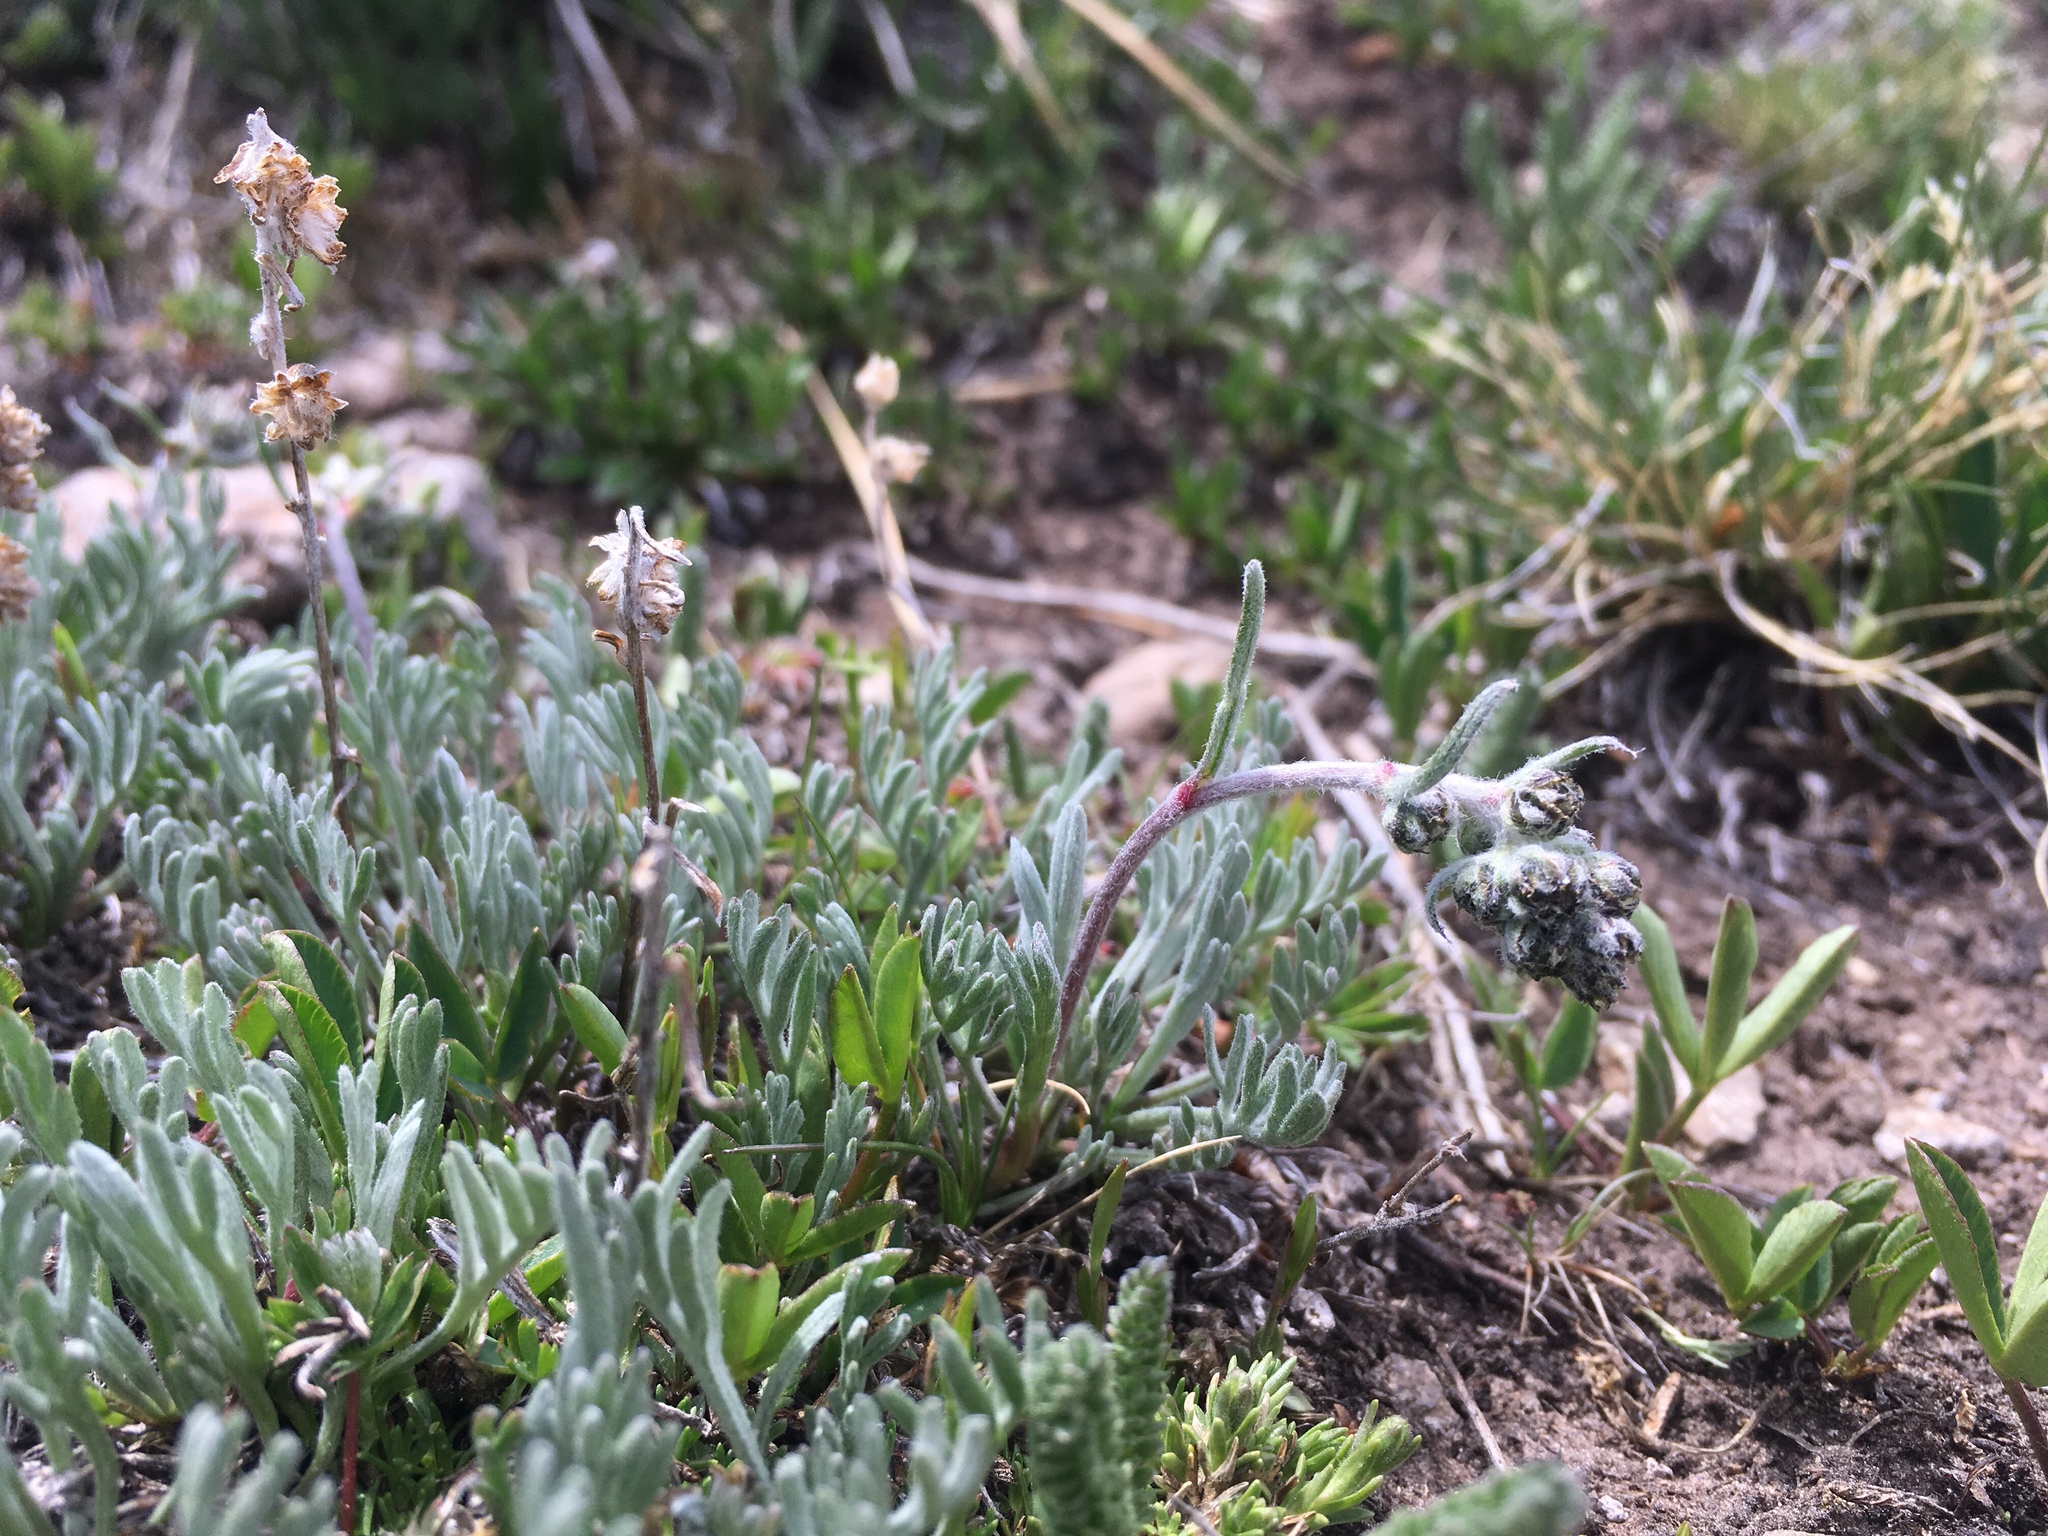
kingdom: Plantae
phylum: Tracheophyta
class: Magnoliopsida
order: Asterales
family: Asteraceae
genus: Artemisia
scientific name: Artemisia scopulorum
